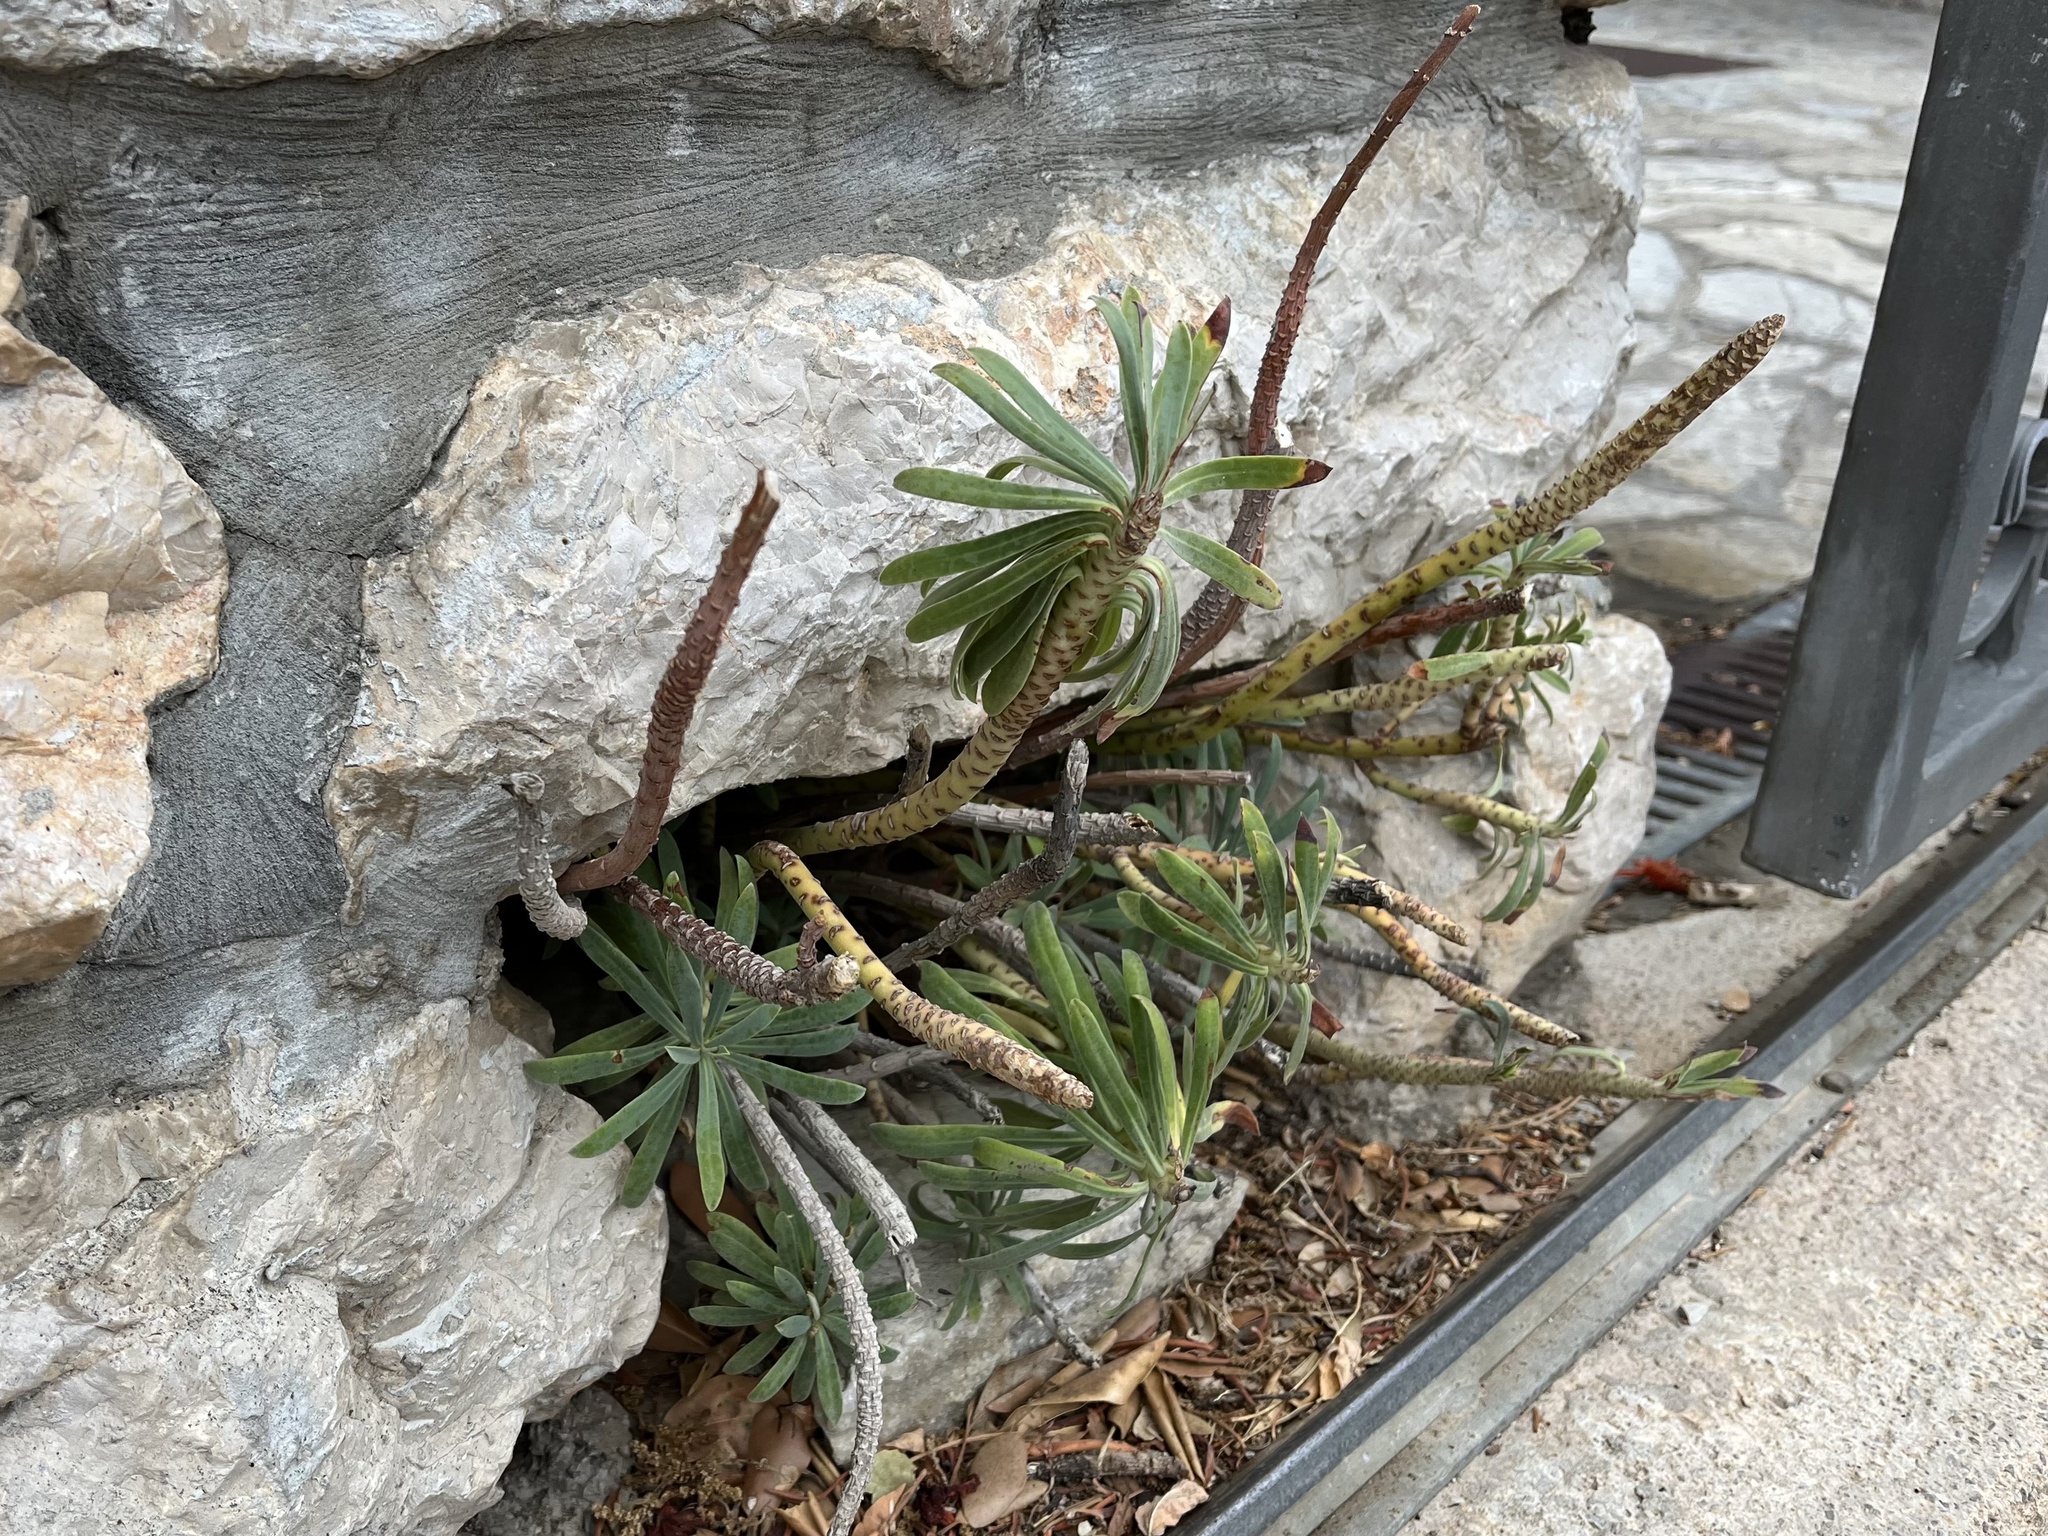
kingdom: Plantae
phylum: Tracheophyta
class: Magnoliopsida
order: Malpighiales
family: Euphorbiaceae
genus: Euphorbia
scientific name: Euphorbia characias
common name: Mediterranean spurge
